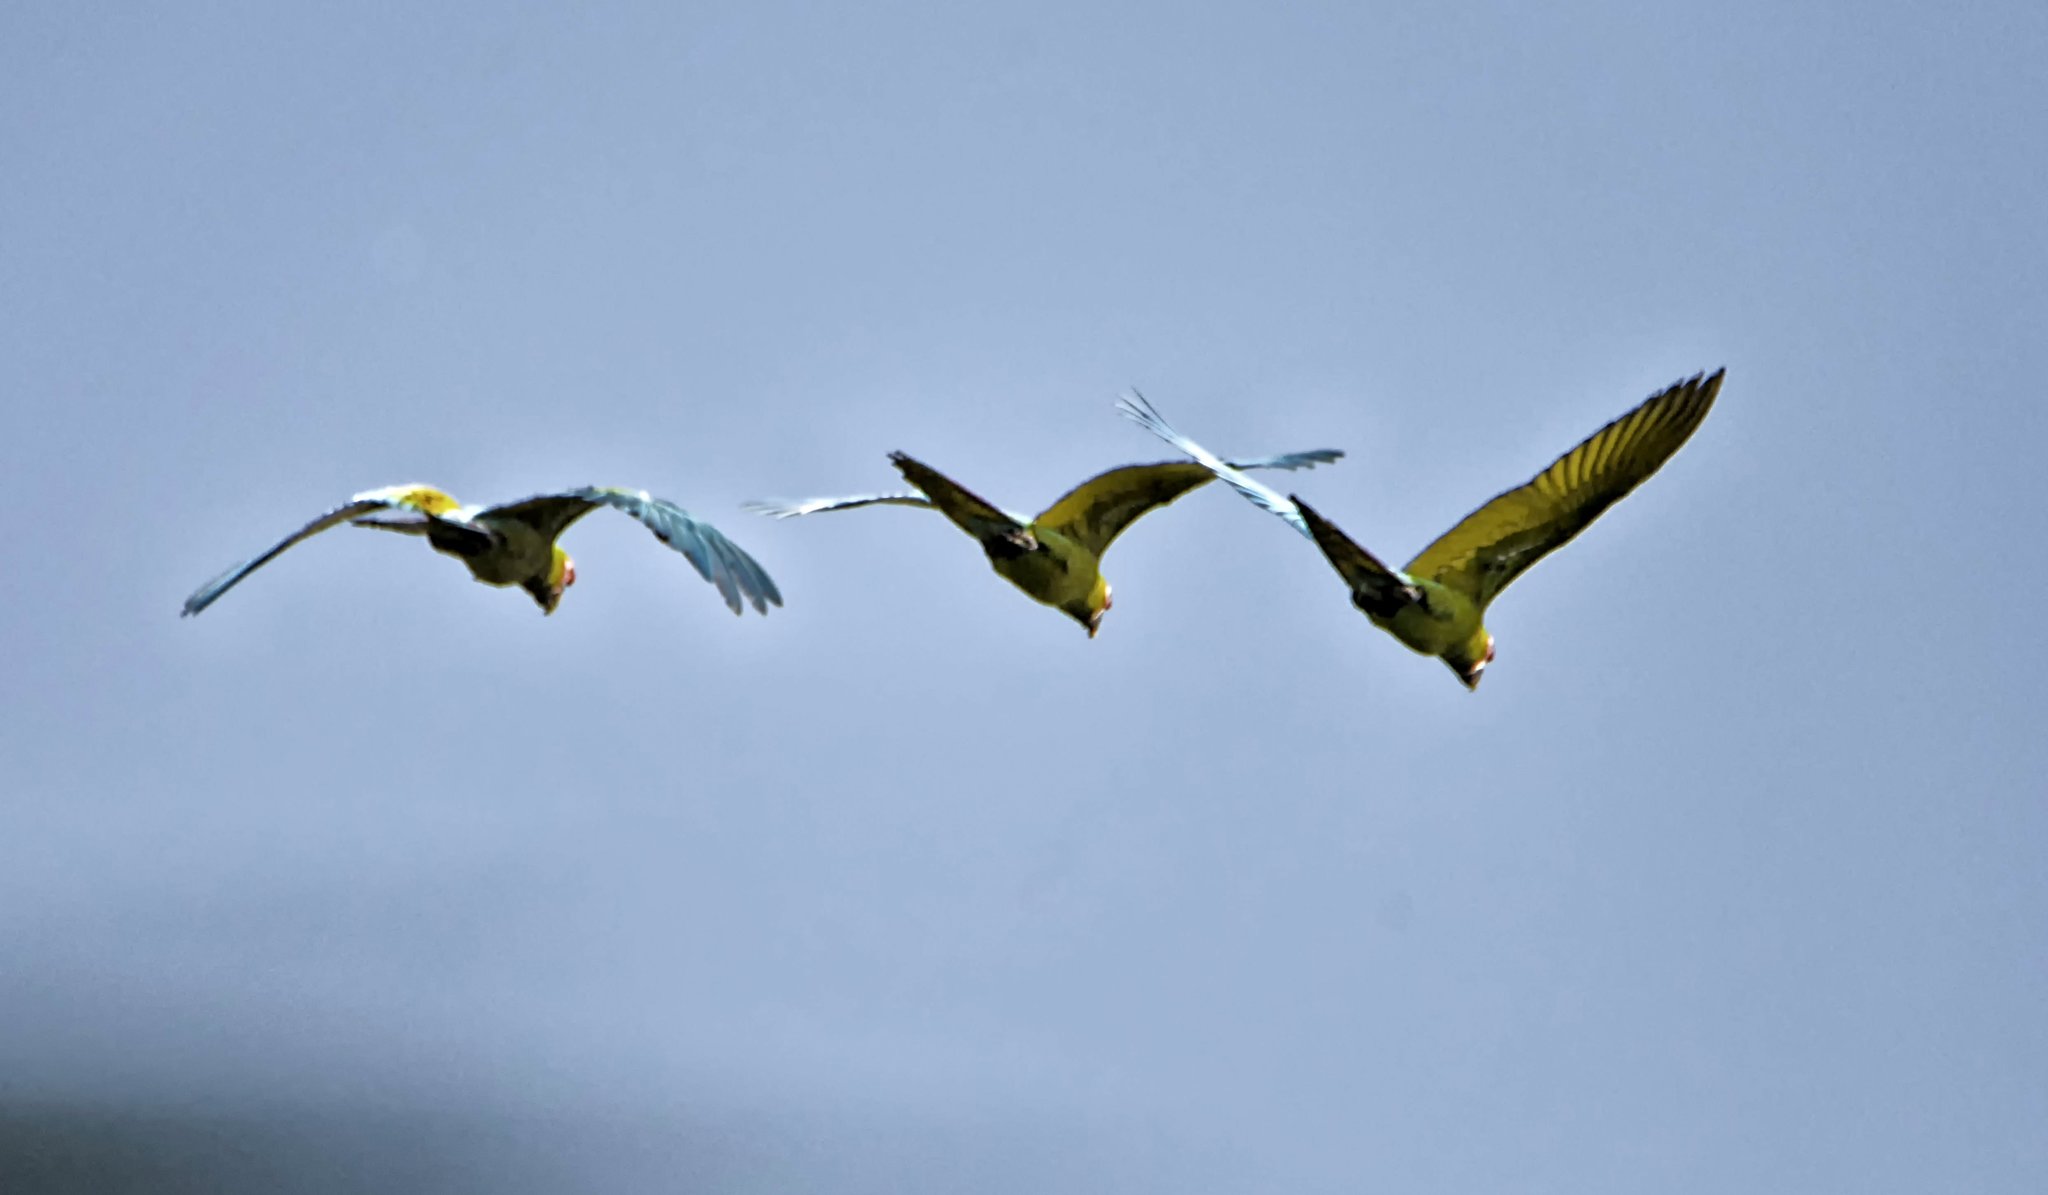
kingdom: Animalia
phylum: Chordata
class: Aves
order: Psittaciformes
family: Psittacidae
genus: Ara
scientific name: Ara militaris
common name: Military macaw
